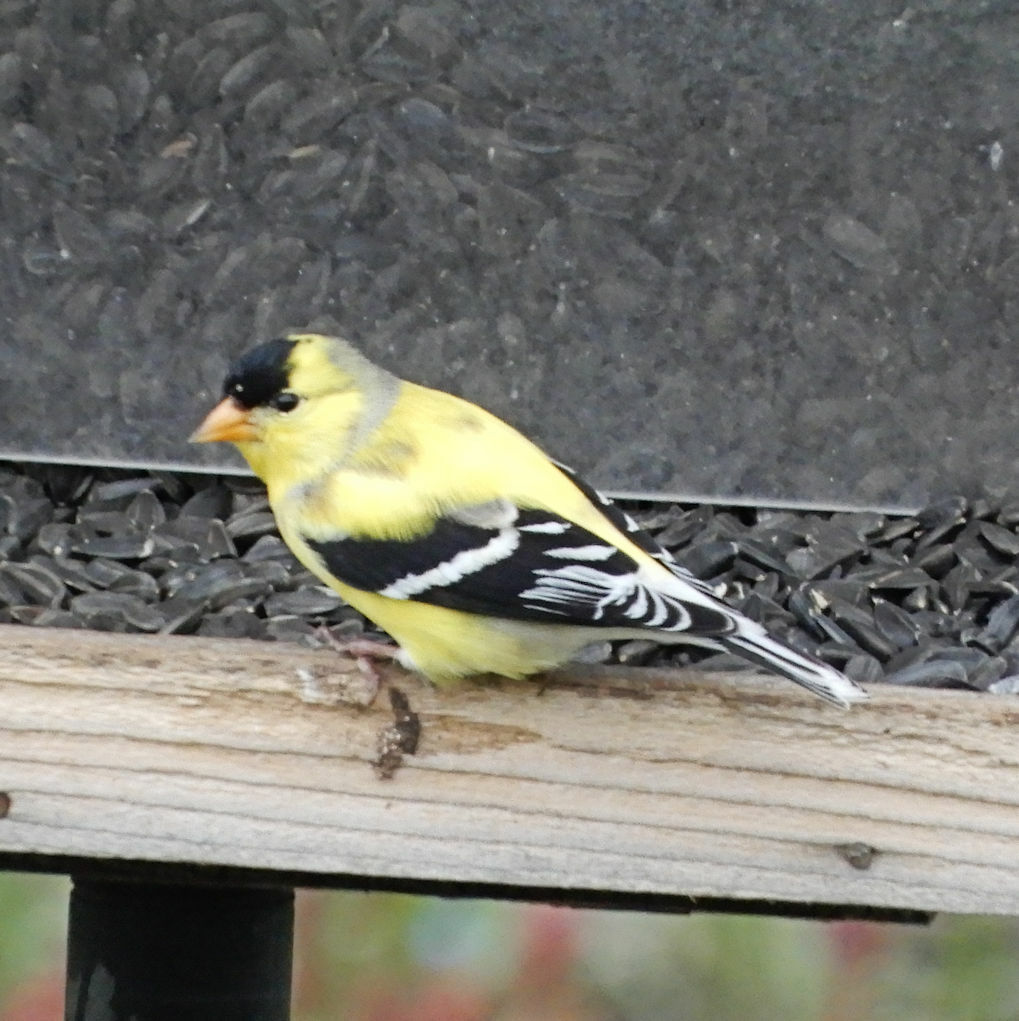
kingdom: Animalia
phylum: Chordata
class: Aves
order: Passeriformes
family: Fringillidae
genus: Spinus
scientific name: Spinus tristis
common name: American goldfinch
